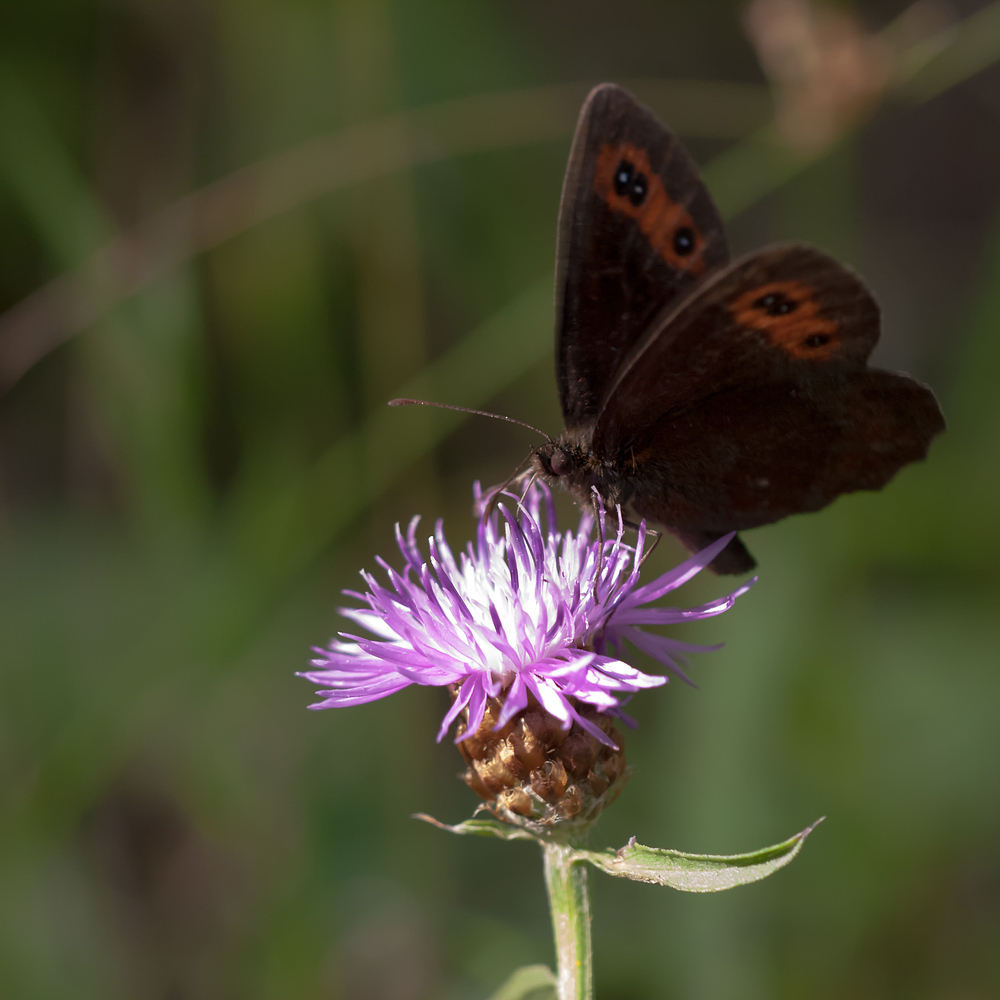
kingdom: Animalia
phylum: Arthropoda
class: Insecta
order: Lepidoptera
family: Nymphalidae
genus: Erebia
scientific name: Erebia aethiops
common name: Scotch argus
